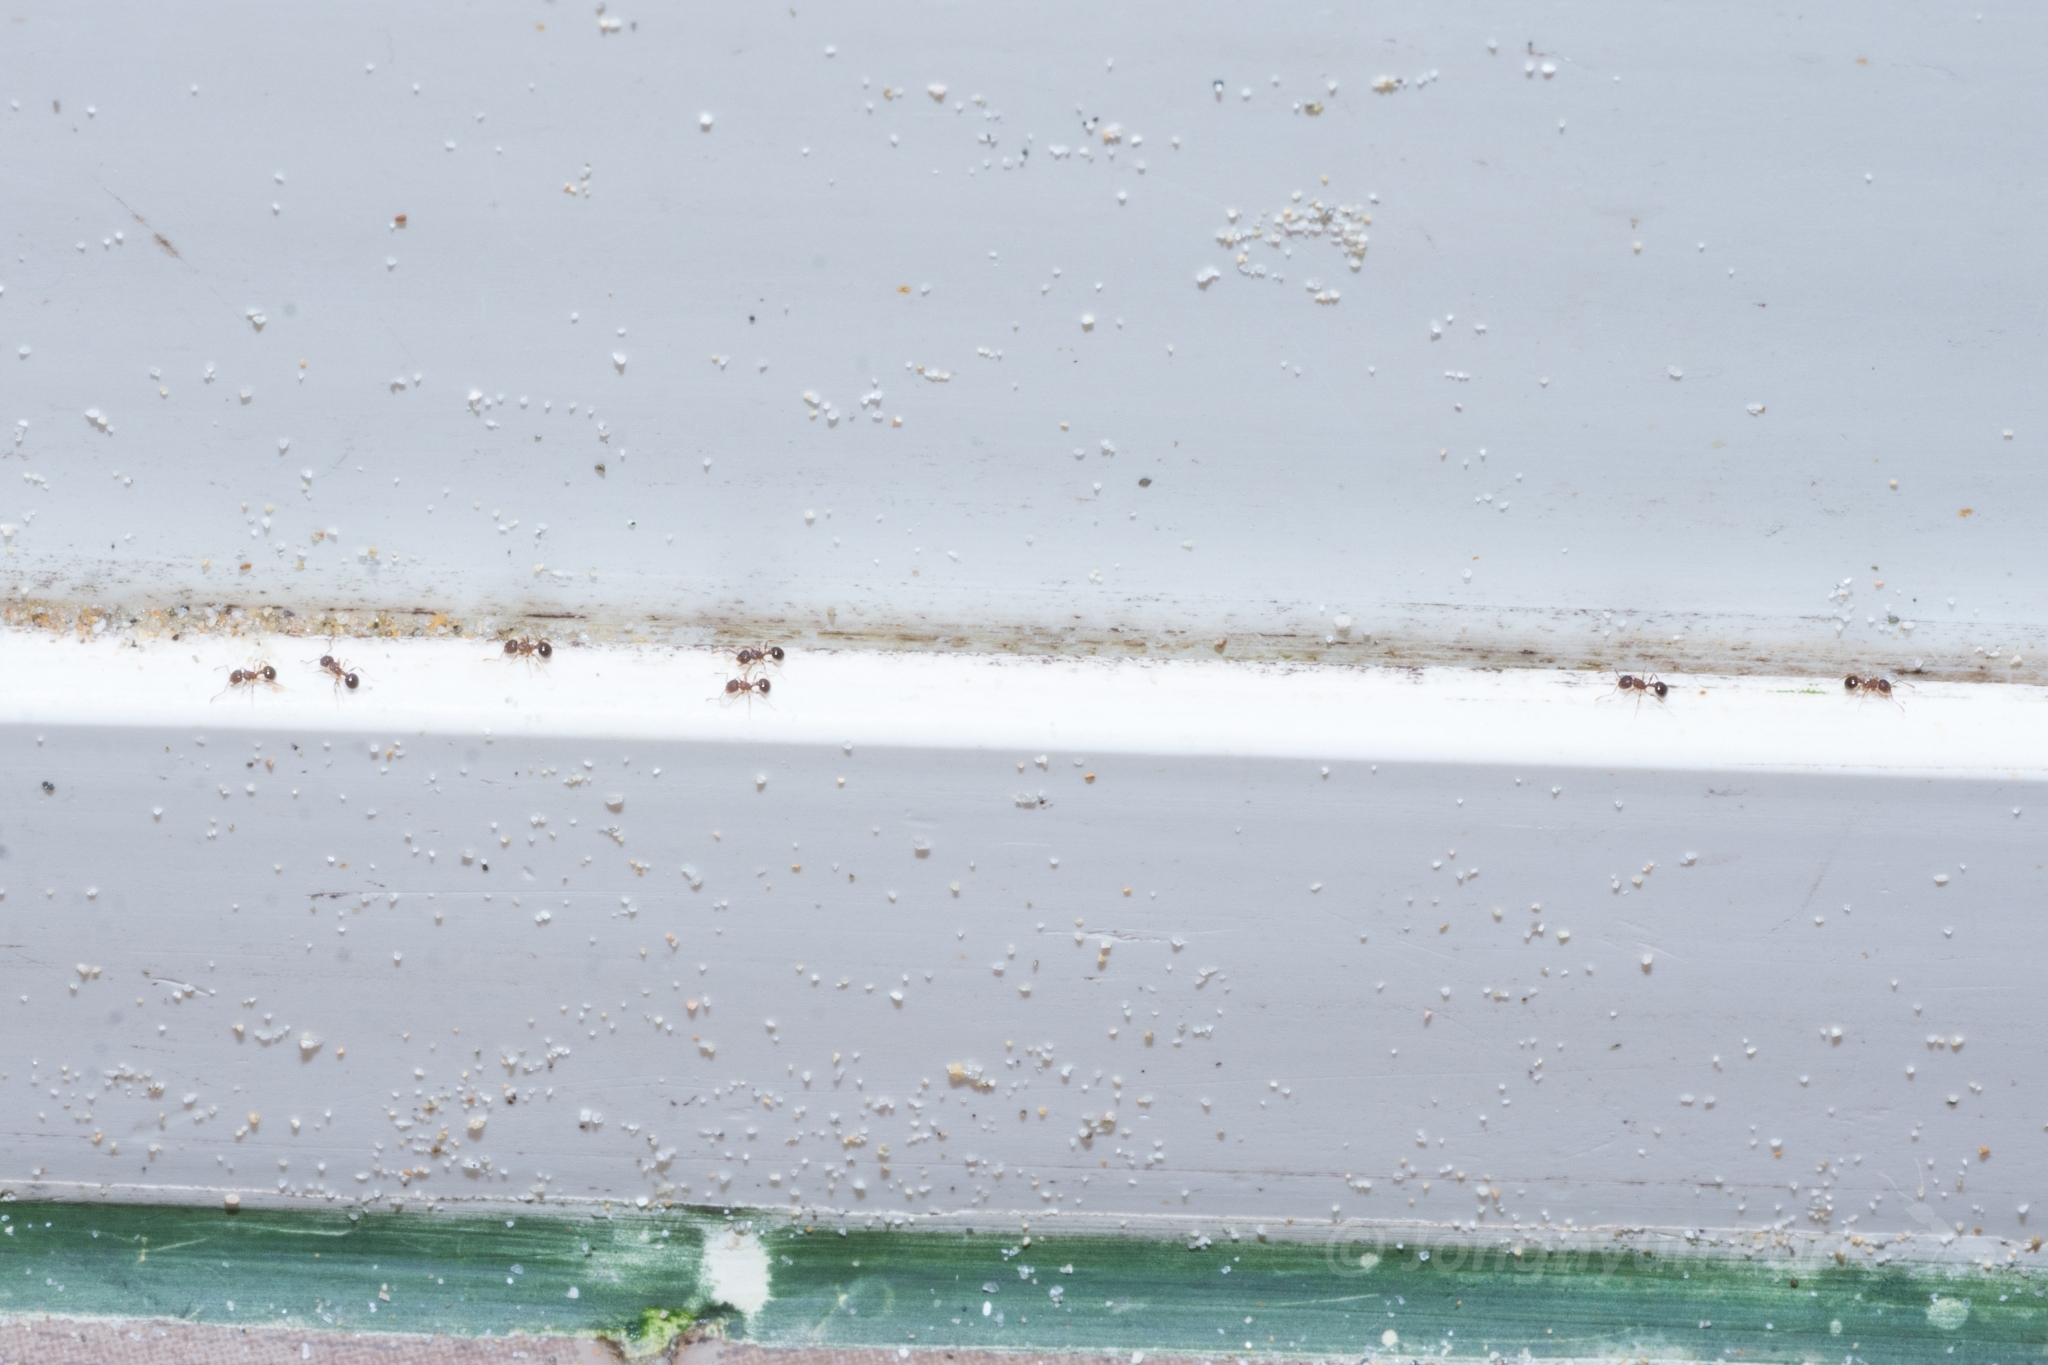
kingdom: Animalia
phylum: Arthropoda
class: Insecta
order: Hymenoptera
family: Formicidae
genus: Pristomyrmex
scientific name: Pristomyrmex punctatus
